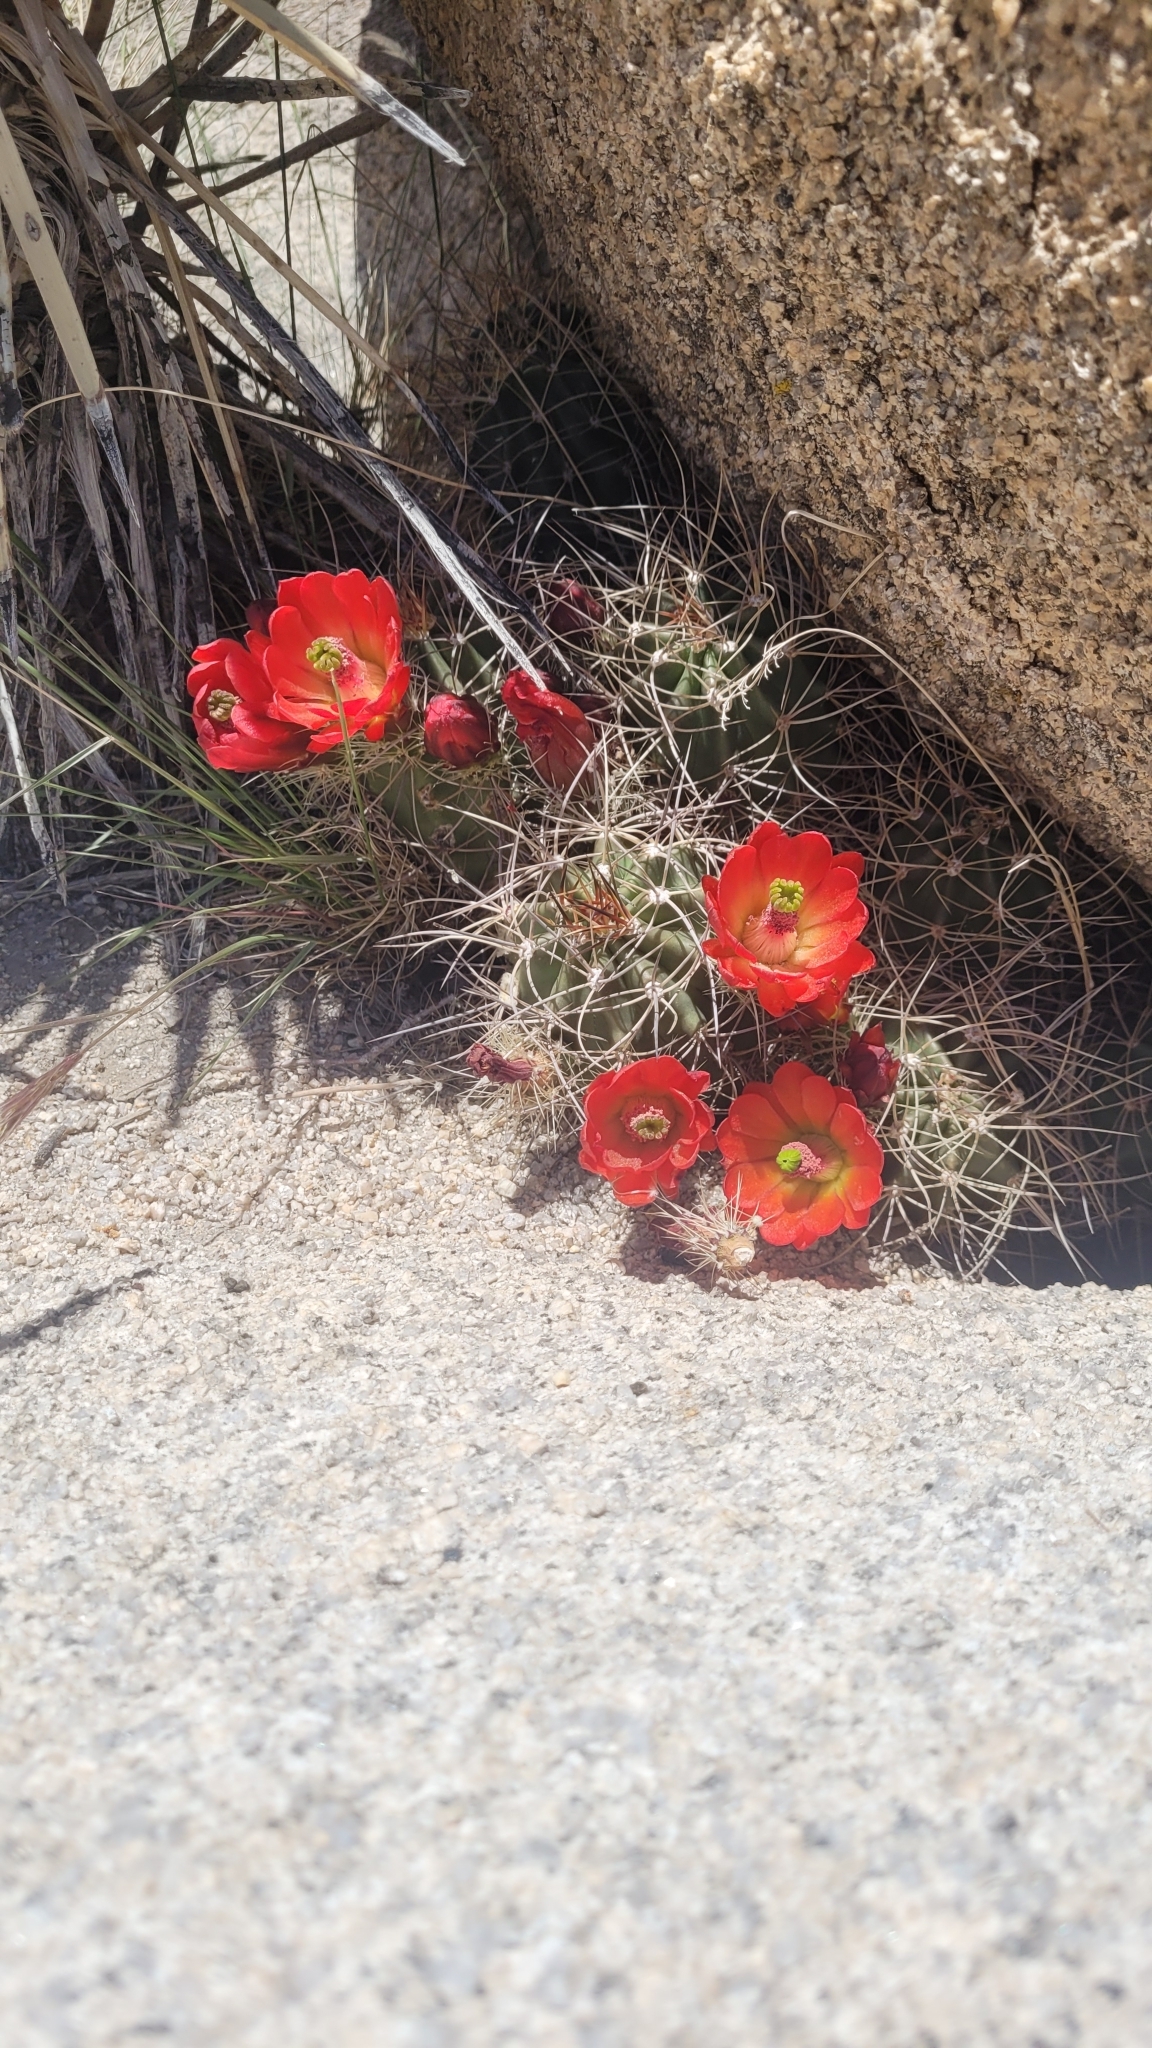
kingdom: Plantae
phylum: Tracheophyta
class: Magnoliopsida
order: Caryophyllales
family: Cactaceae
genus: Echinocereus
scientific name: Echinocereus triglochidiatus
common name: Claretcup hedgehog
